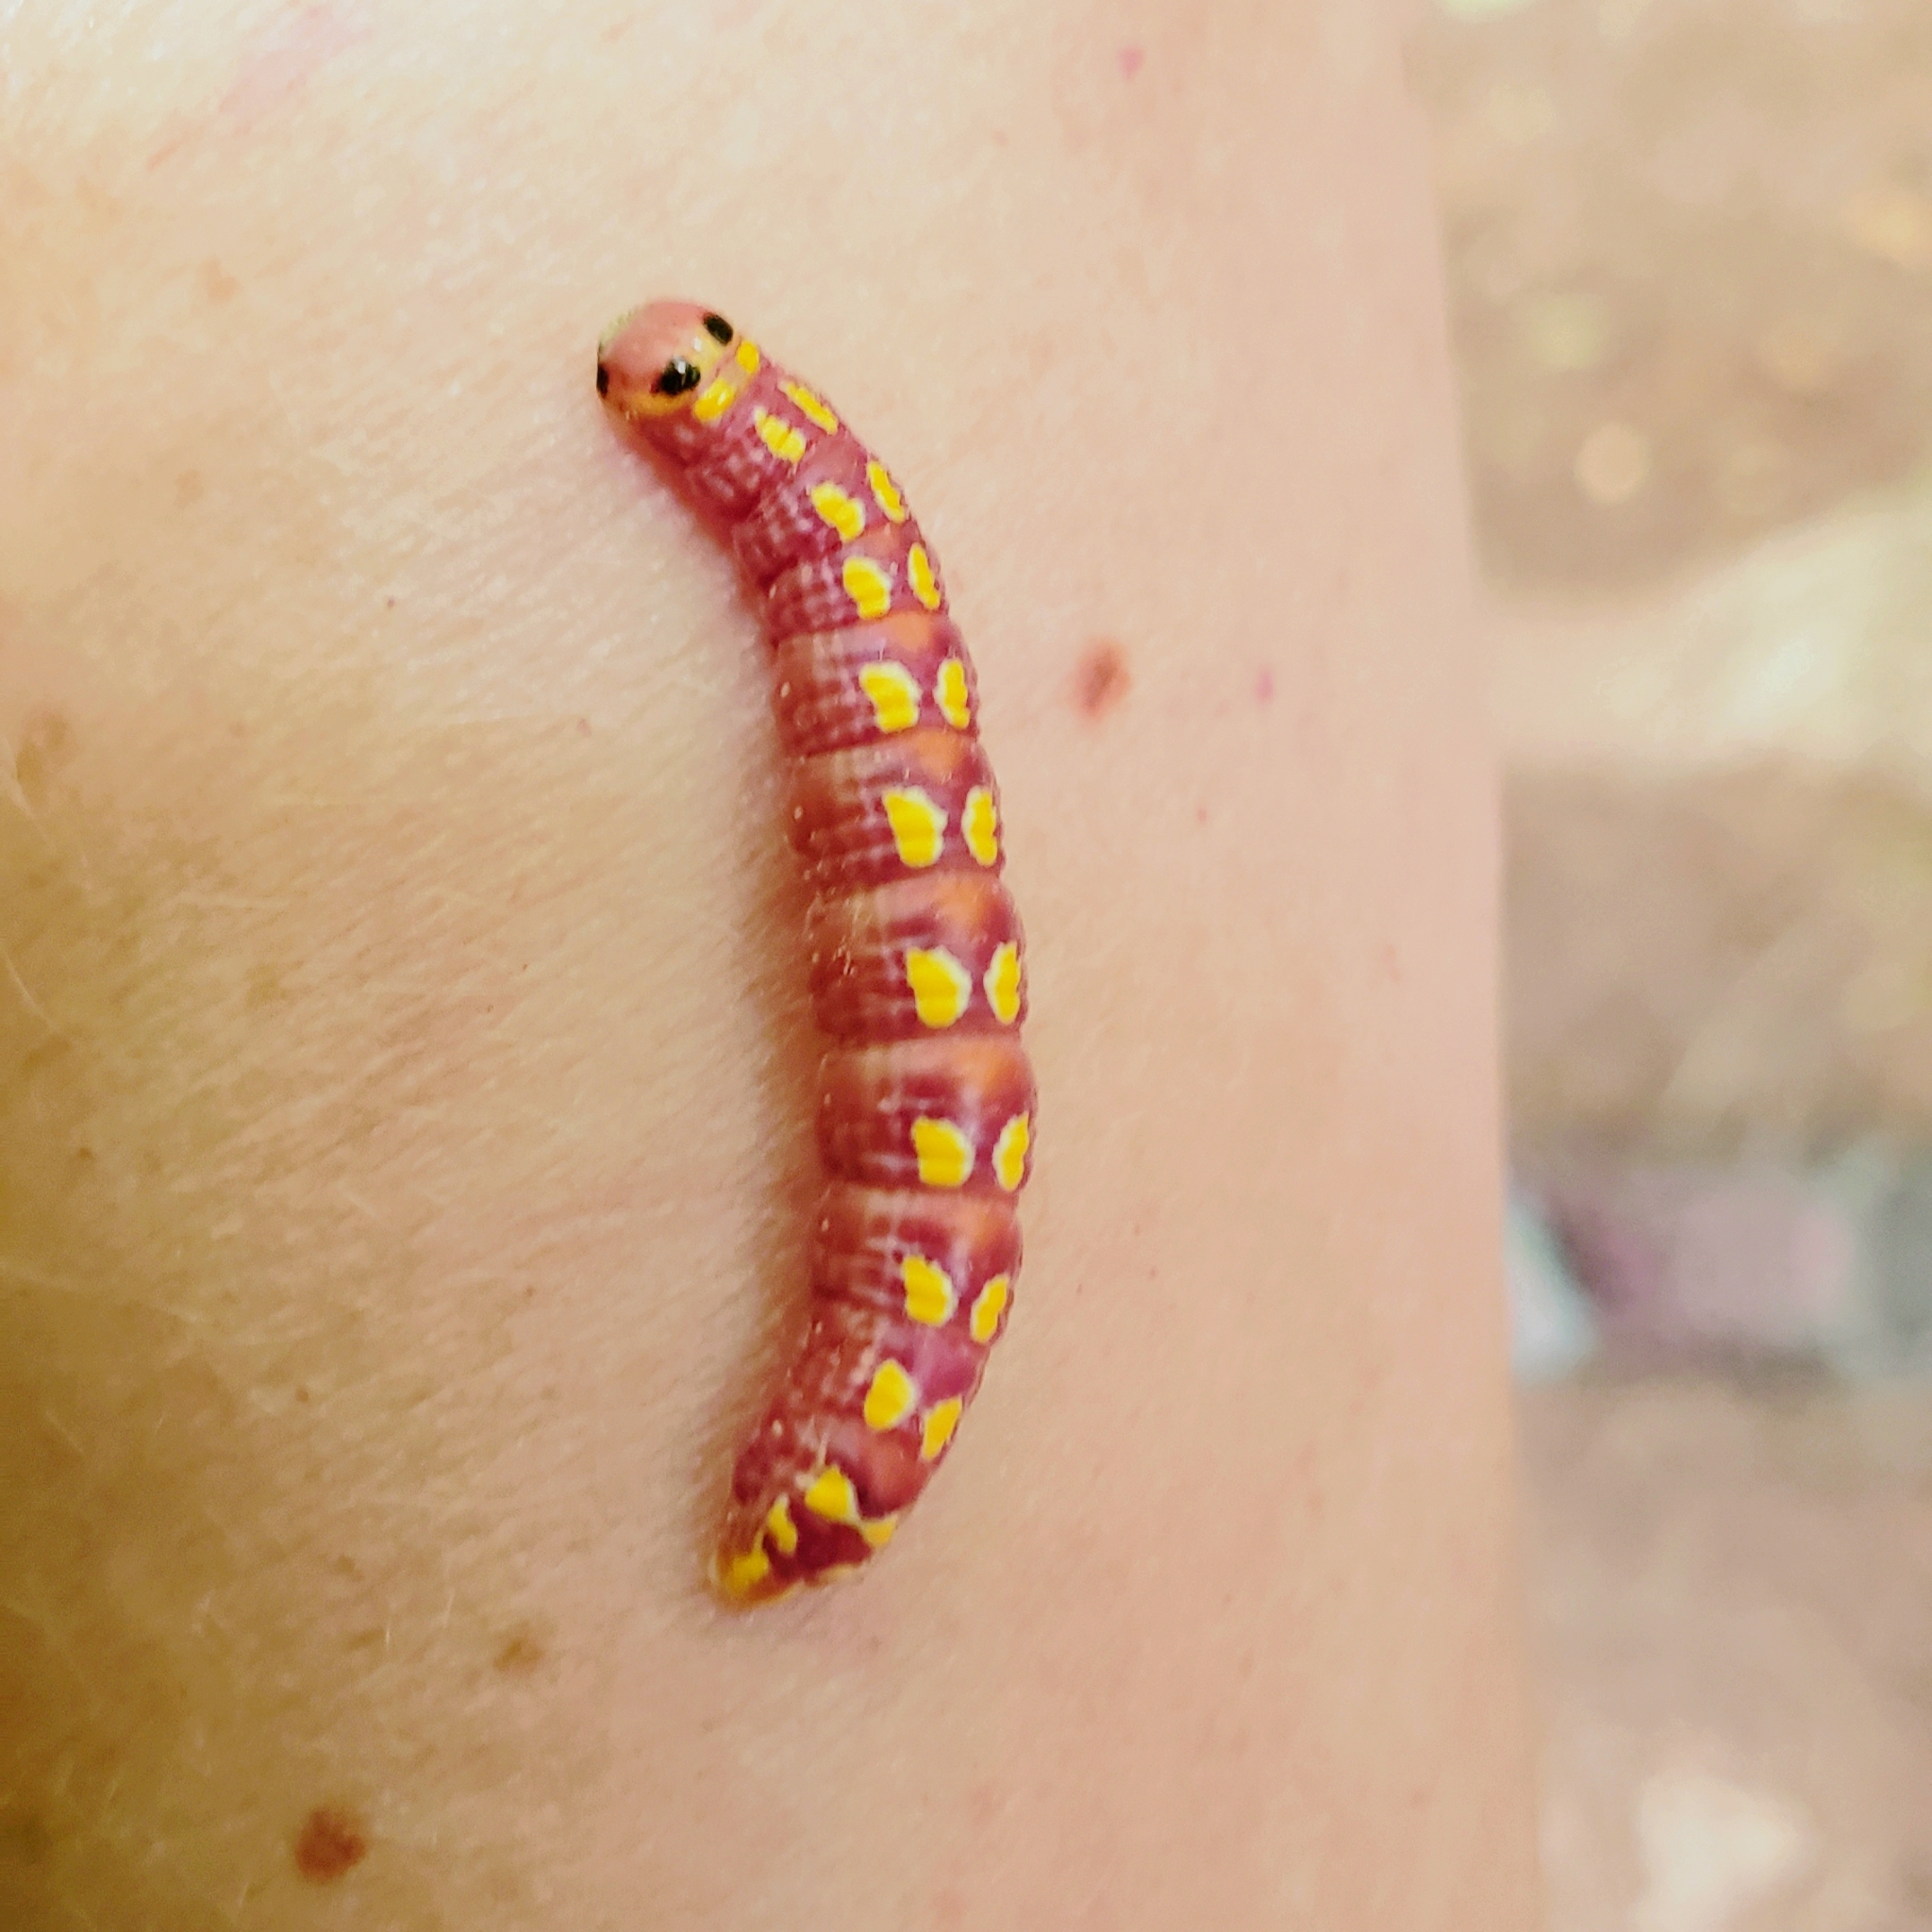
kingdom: Animalia
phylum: Arthropoda
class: Insecta
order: Lepidoptera
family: Notodontidae
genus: Ellida
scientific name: Ellida caniplaga
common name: Linden prominent
